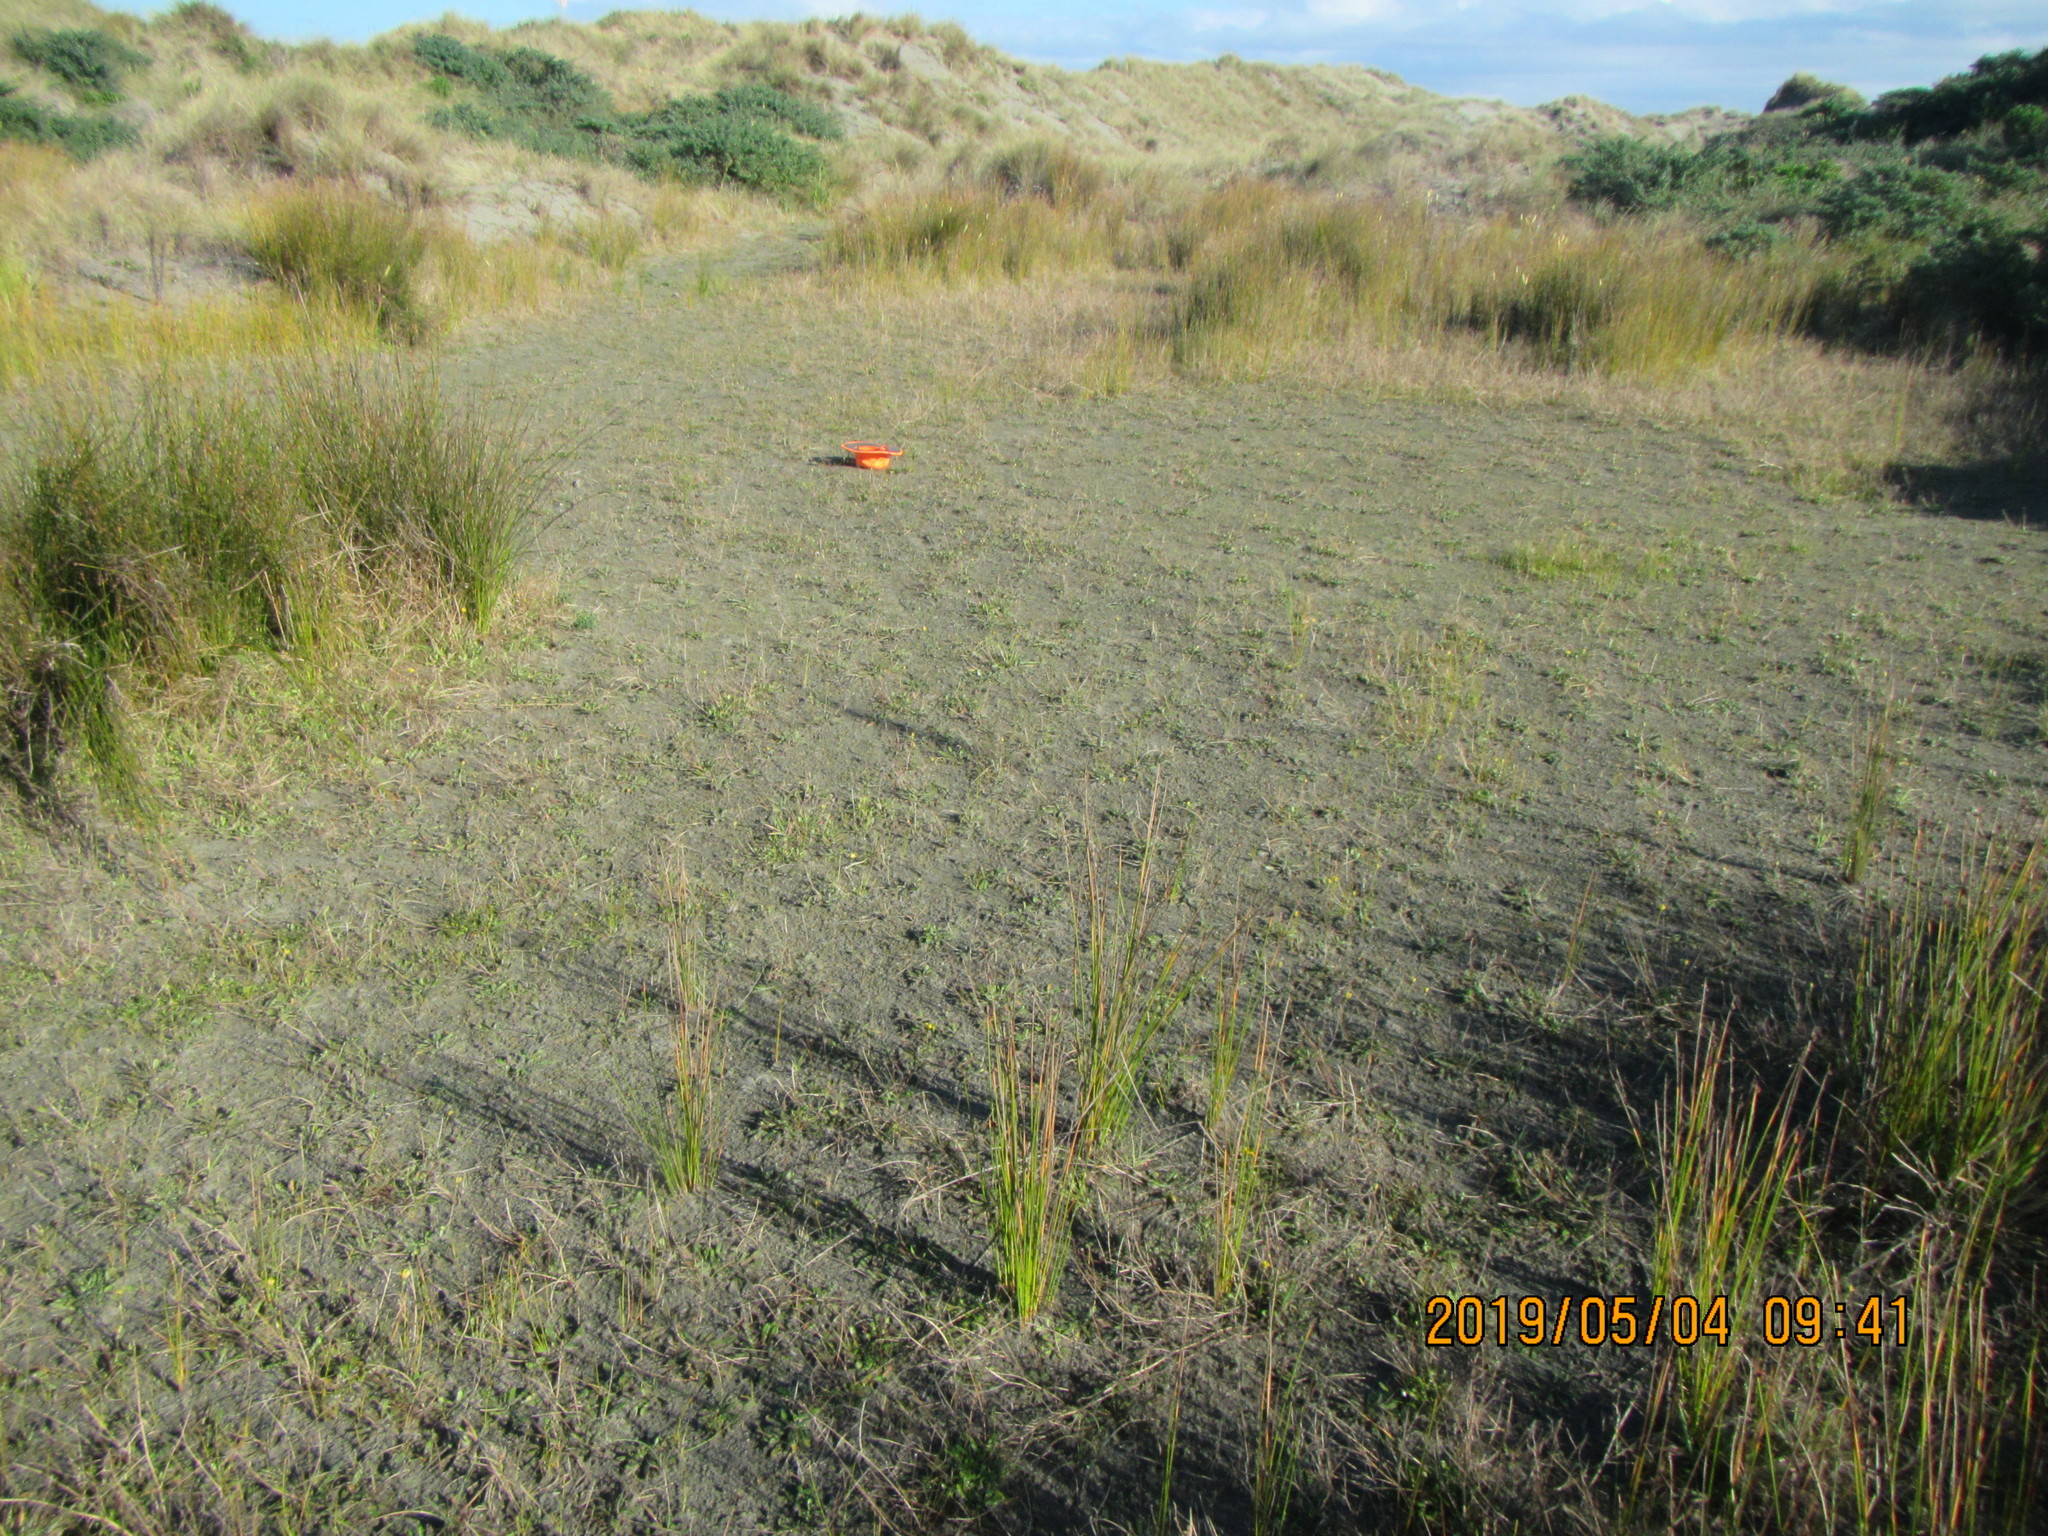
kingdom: Plantae
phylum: Tracheophyta
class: Magnoliopsida
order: Apiales
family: Apiaceae
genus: Lilaeopsis
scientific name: Lilaeopsis novae-zelandiae
